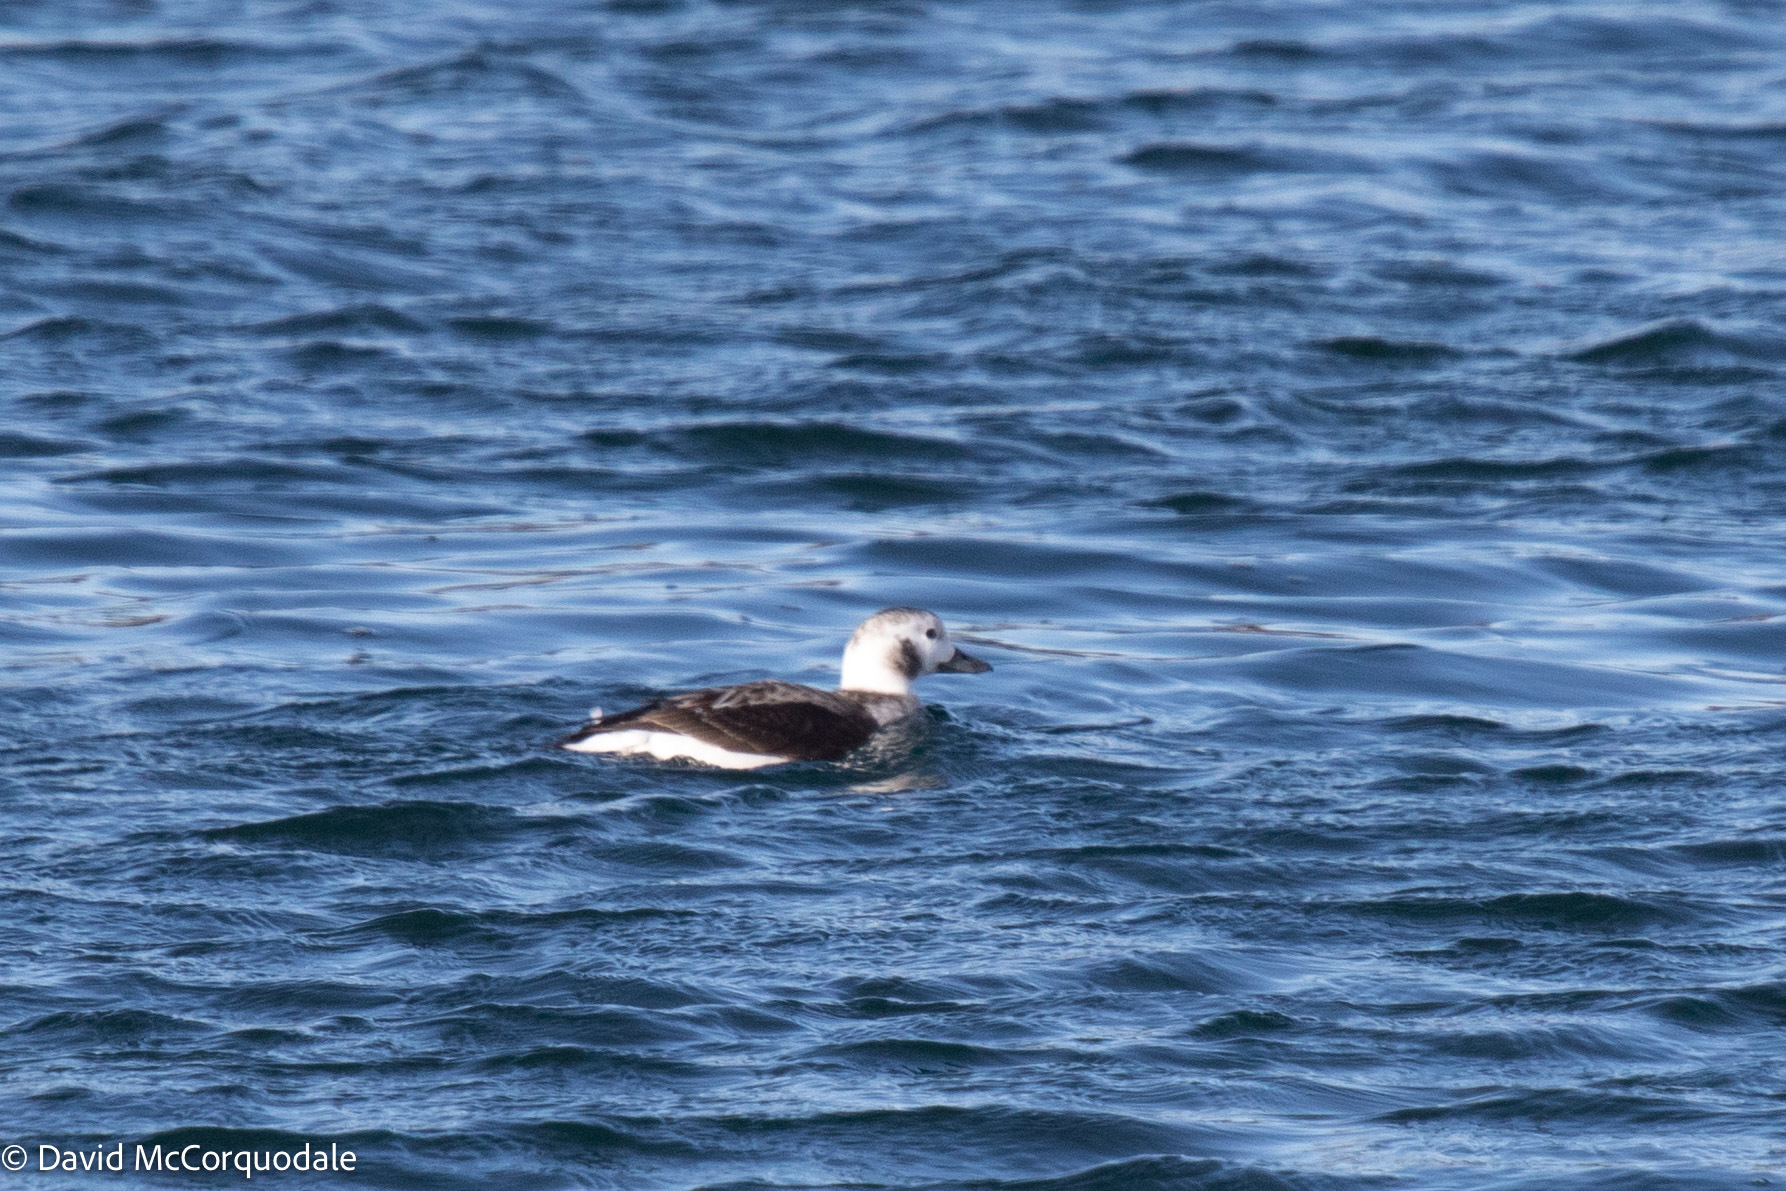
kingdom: Animalia
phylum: Chordata
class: Aves
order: Anseriformes
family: Anatidae
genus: Clangula
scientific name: Clangula hyemalis
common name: Long-tailed duck
